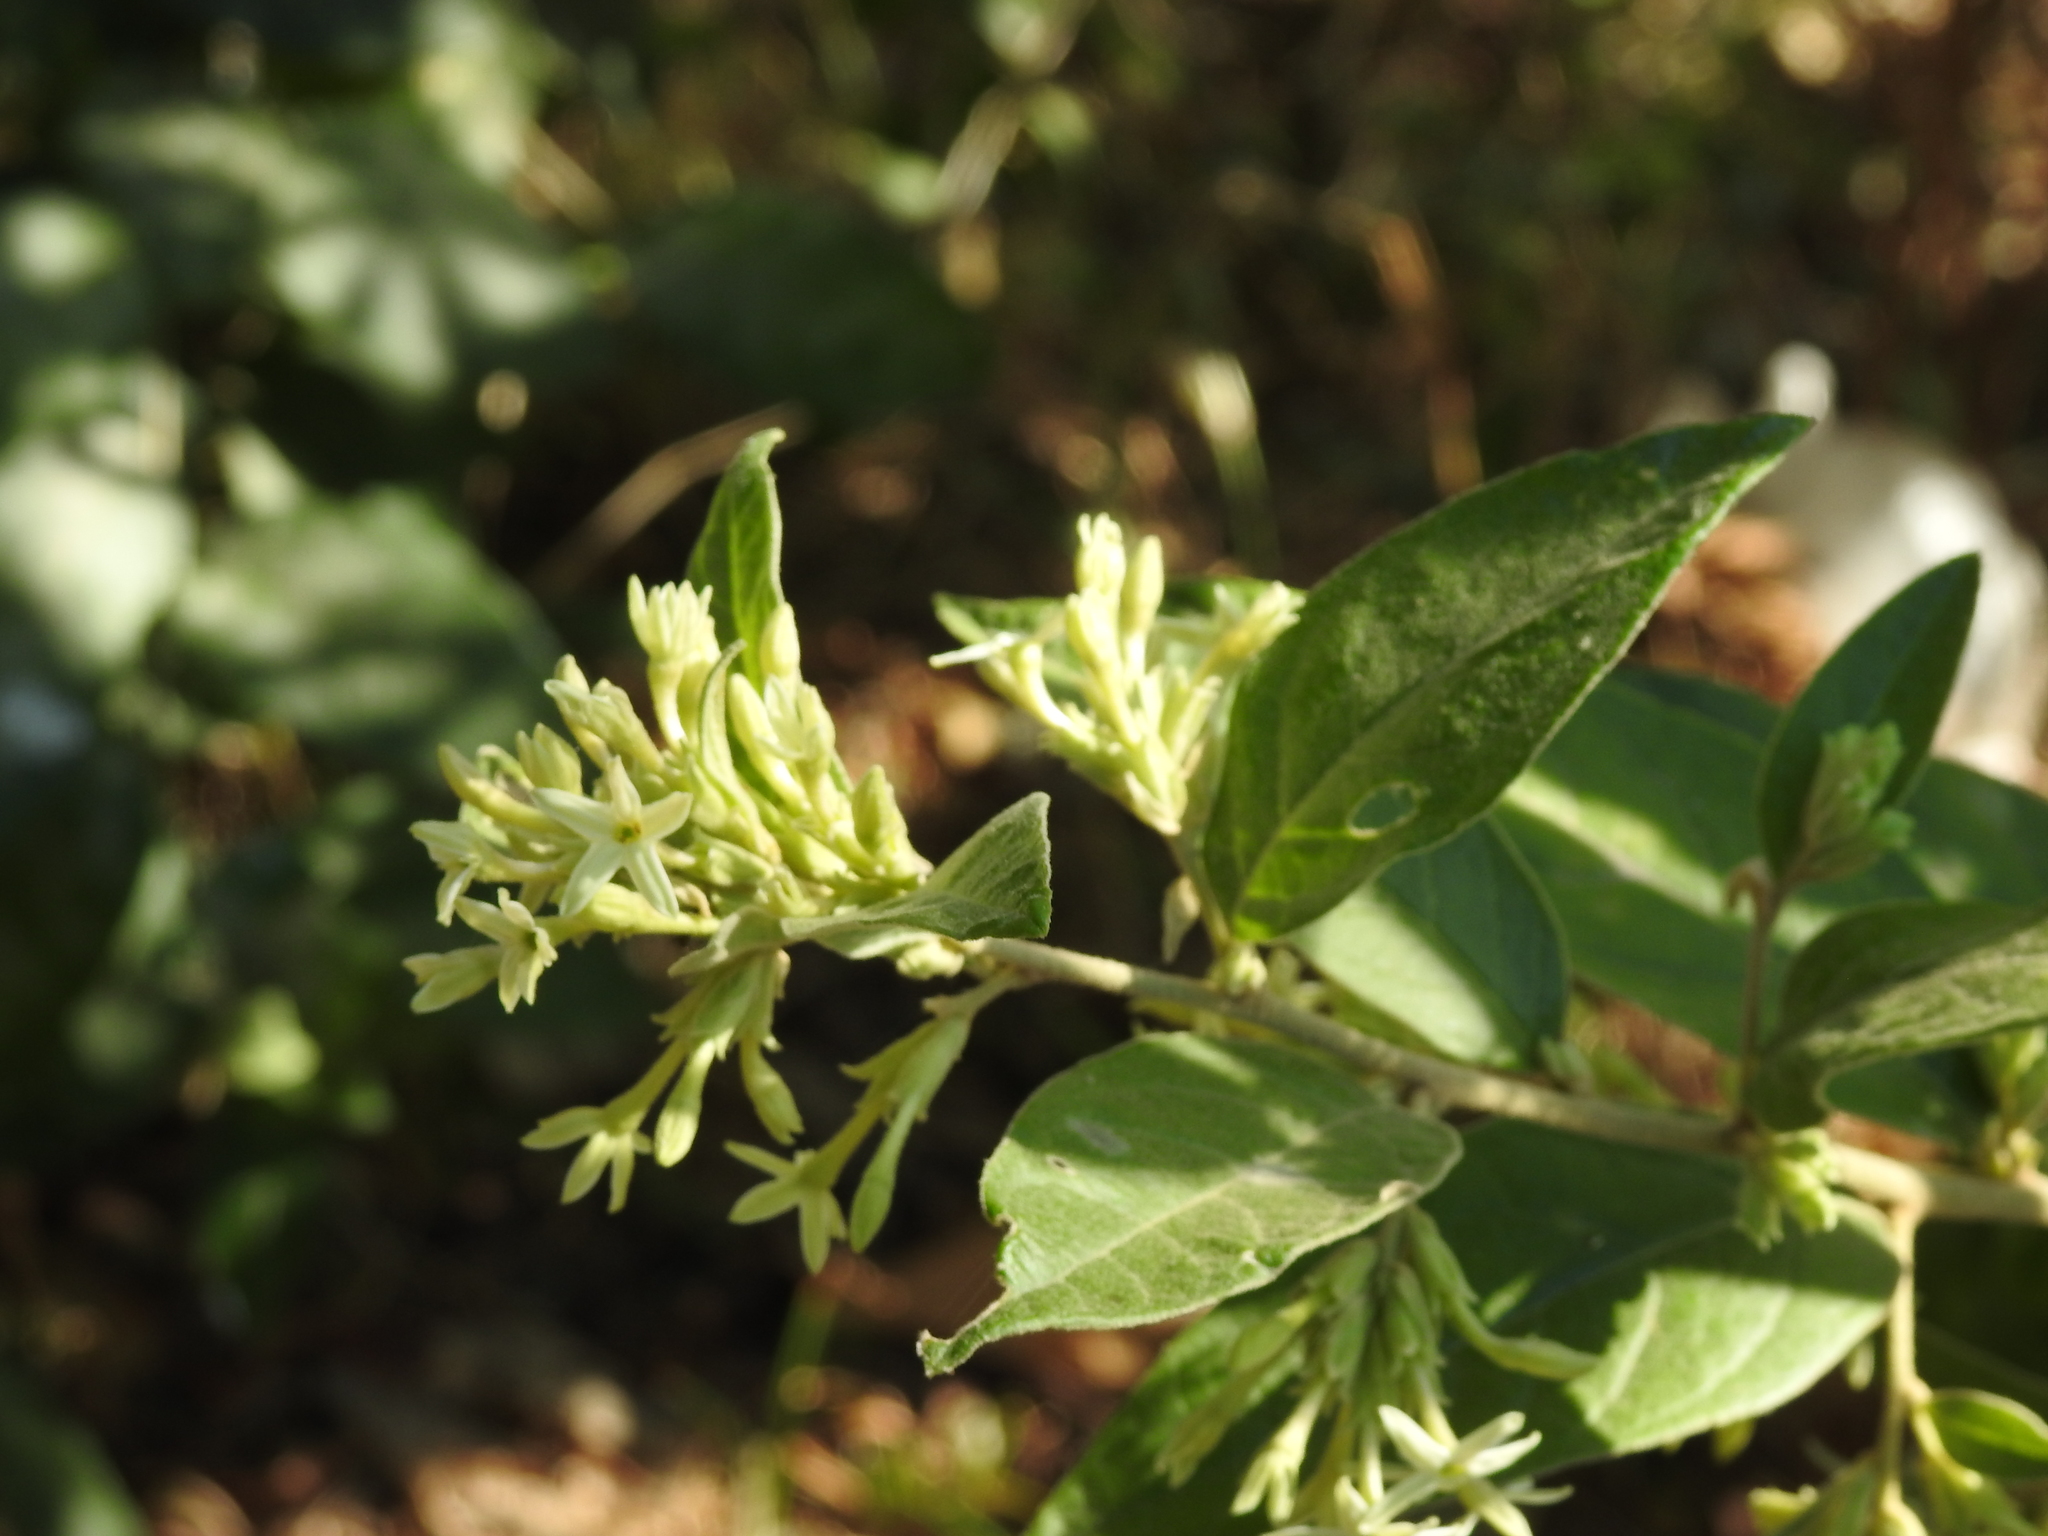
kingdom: Plantae
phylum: Tracheophyta
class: Magnoliopsida
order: Solanales
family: Solanaceae
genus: Cestrum
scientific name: Cestrum strigillatum
